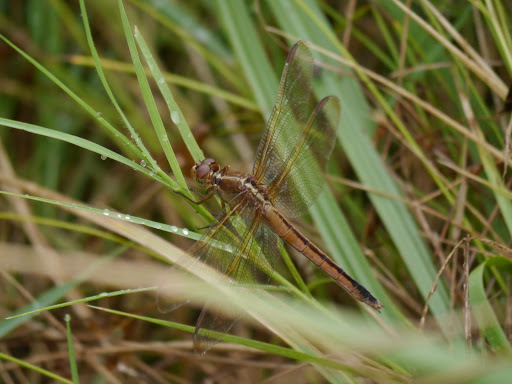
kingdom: Animalia
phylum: Arthropoda
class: Insecta
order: Odonata
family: Libellulidae
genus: Libellula
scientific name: Libellula needhami
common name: Needham's skimmer
